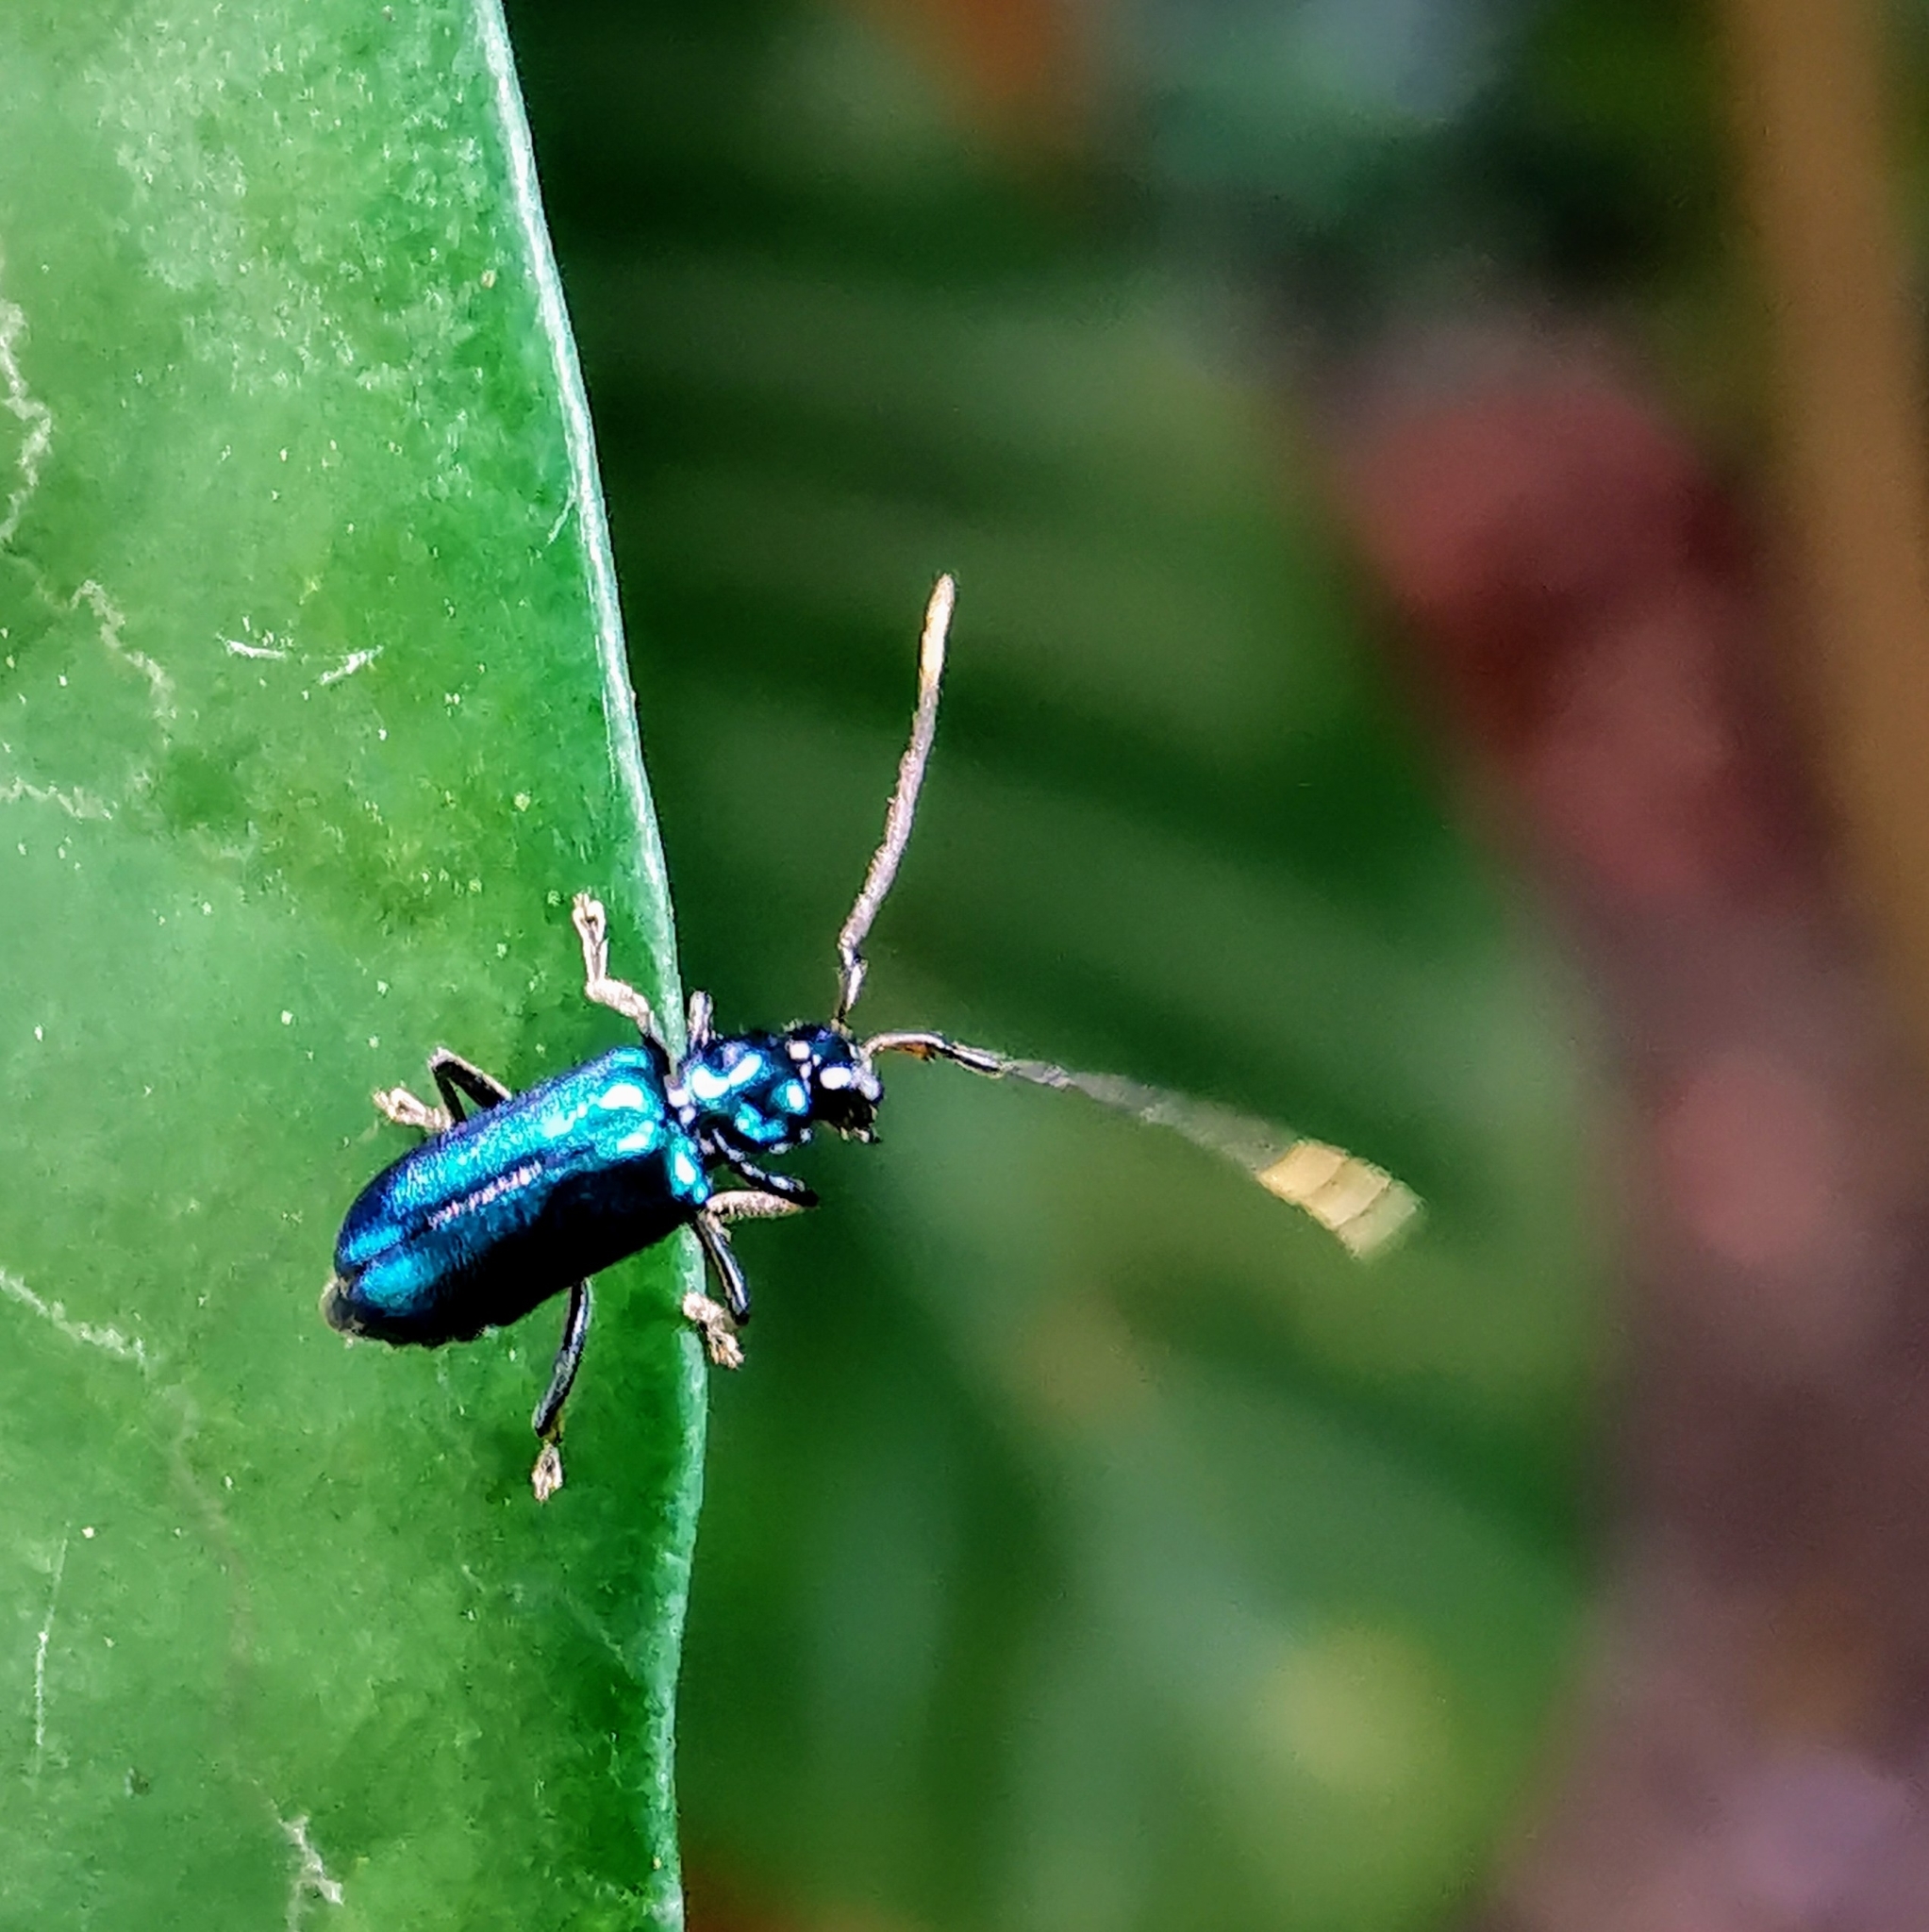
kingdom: Animalia
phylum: Arthropoda
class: Insecta
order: Coleoptera
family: Chrysomelidae
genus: Hoplosaenidea
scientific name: Hoplosaenidea
